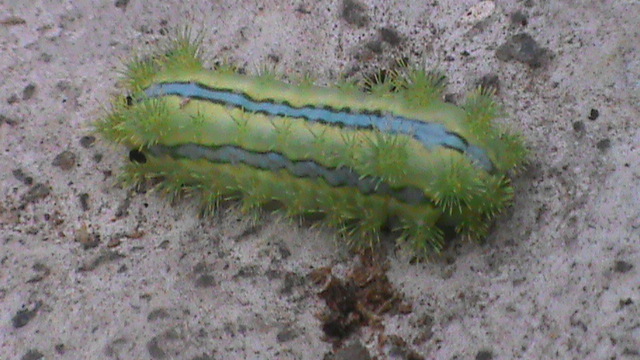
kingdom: Animalia
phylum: Arthropoda
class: Insecta
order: Lepidoptera
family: Limacodidae
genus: Parasa
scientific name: Parasa lepida
